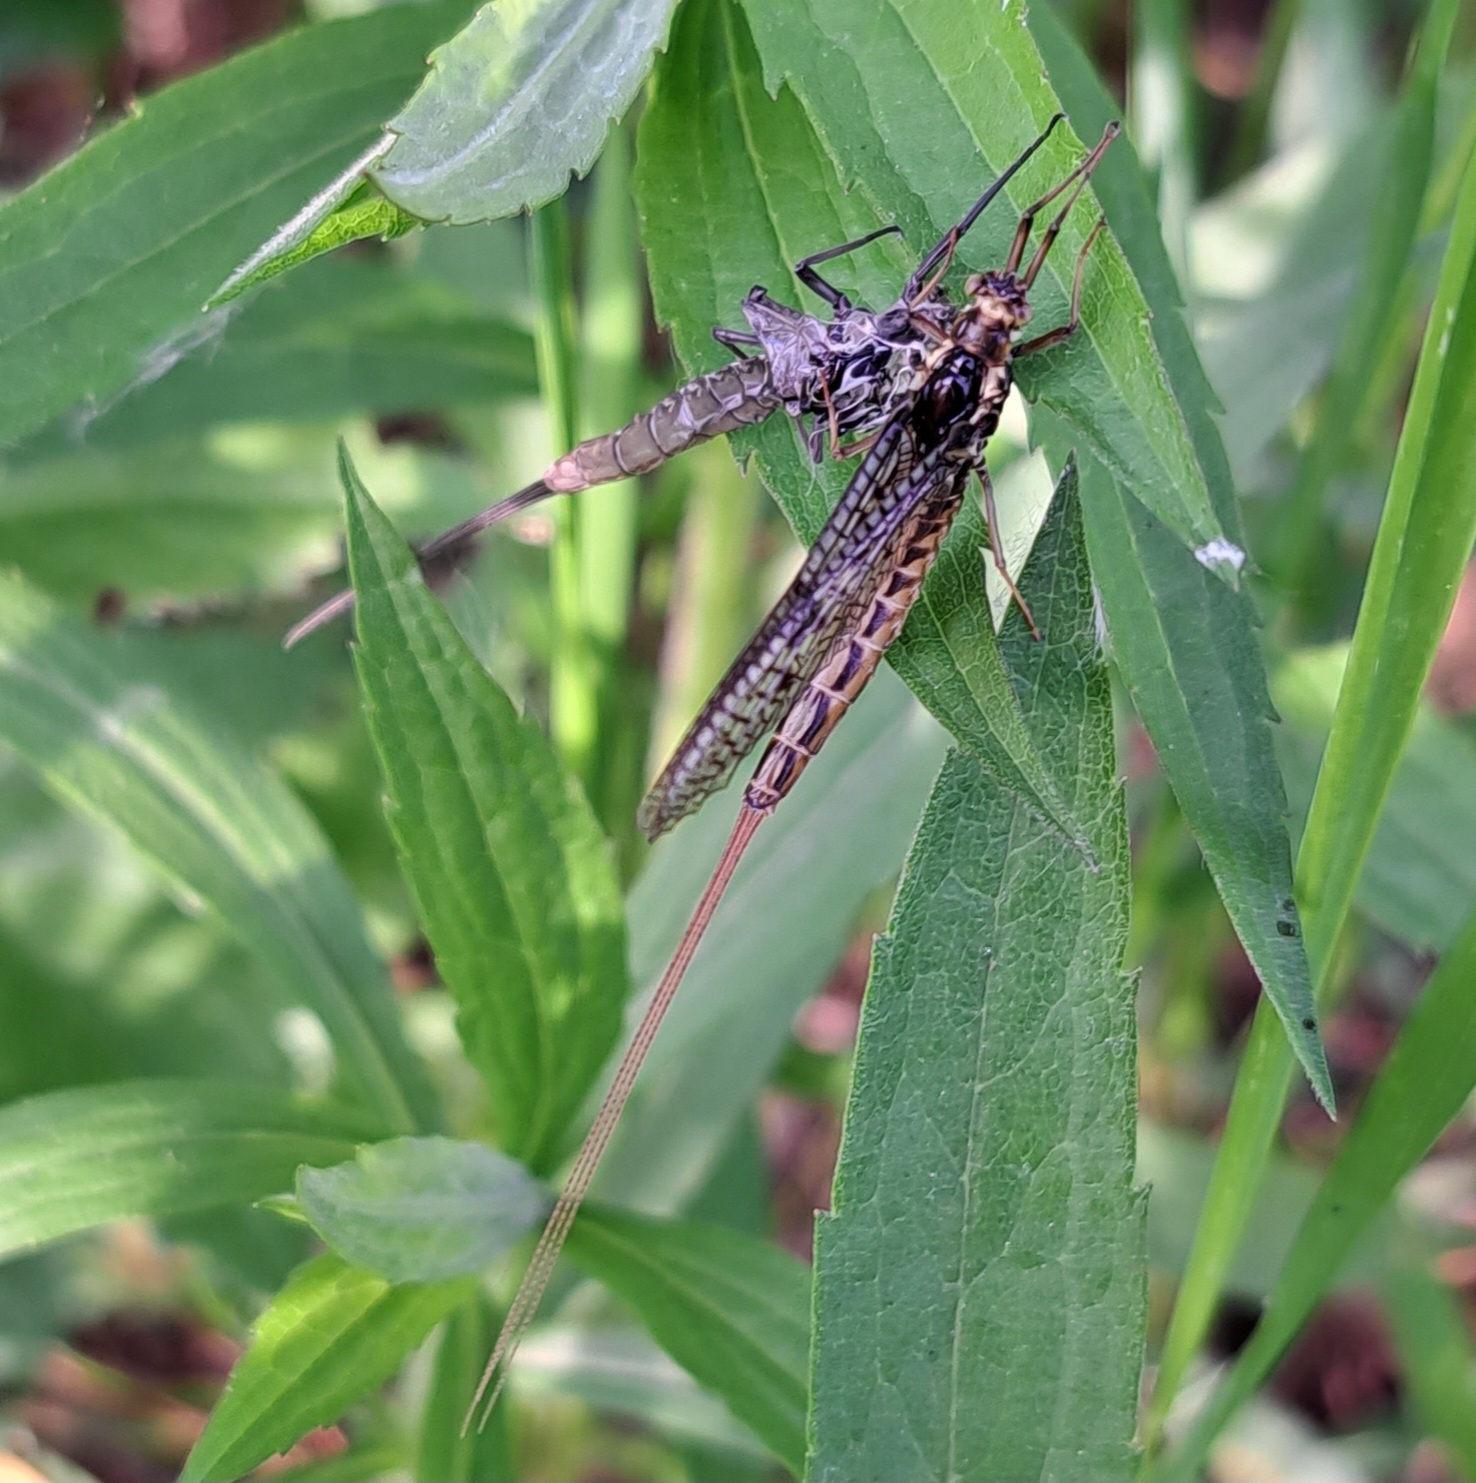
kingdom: Animalia
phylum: Arthropoda
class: Insecta
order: Ephemeroptera
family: Ephemeridae
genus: Ephemera
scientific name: Ephemera vulgata
